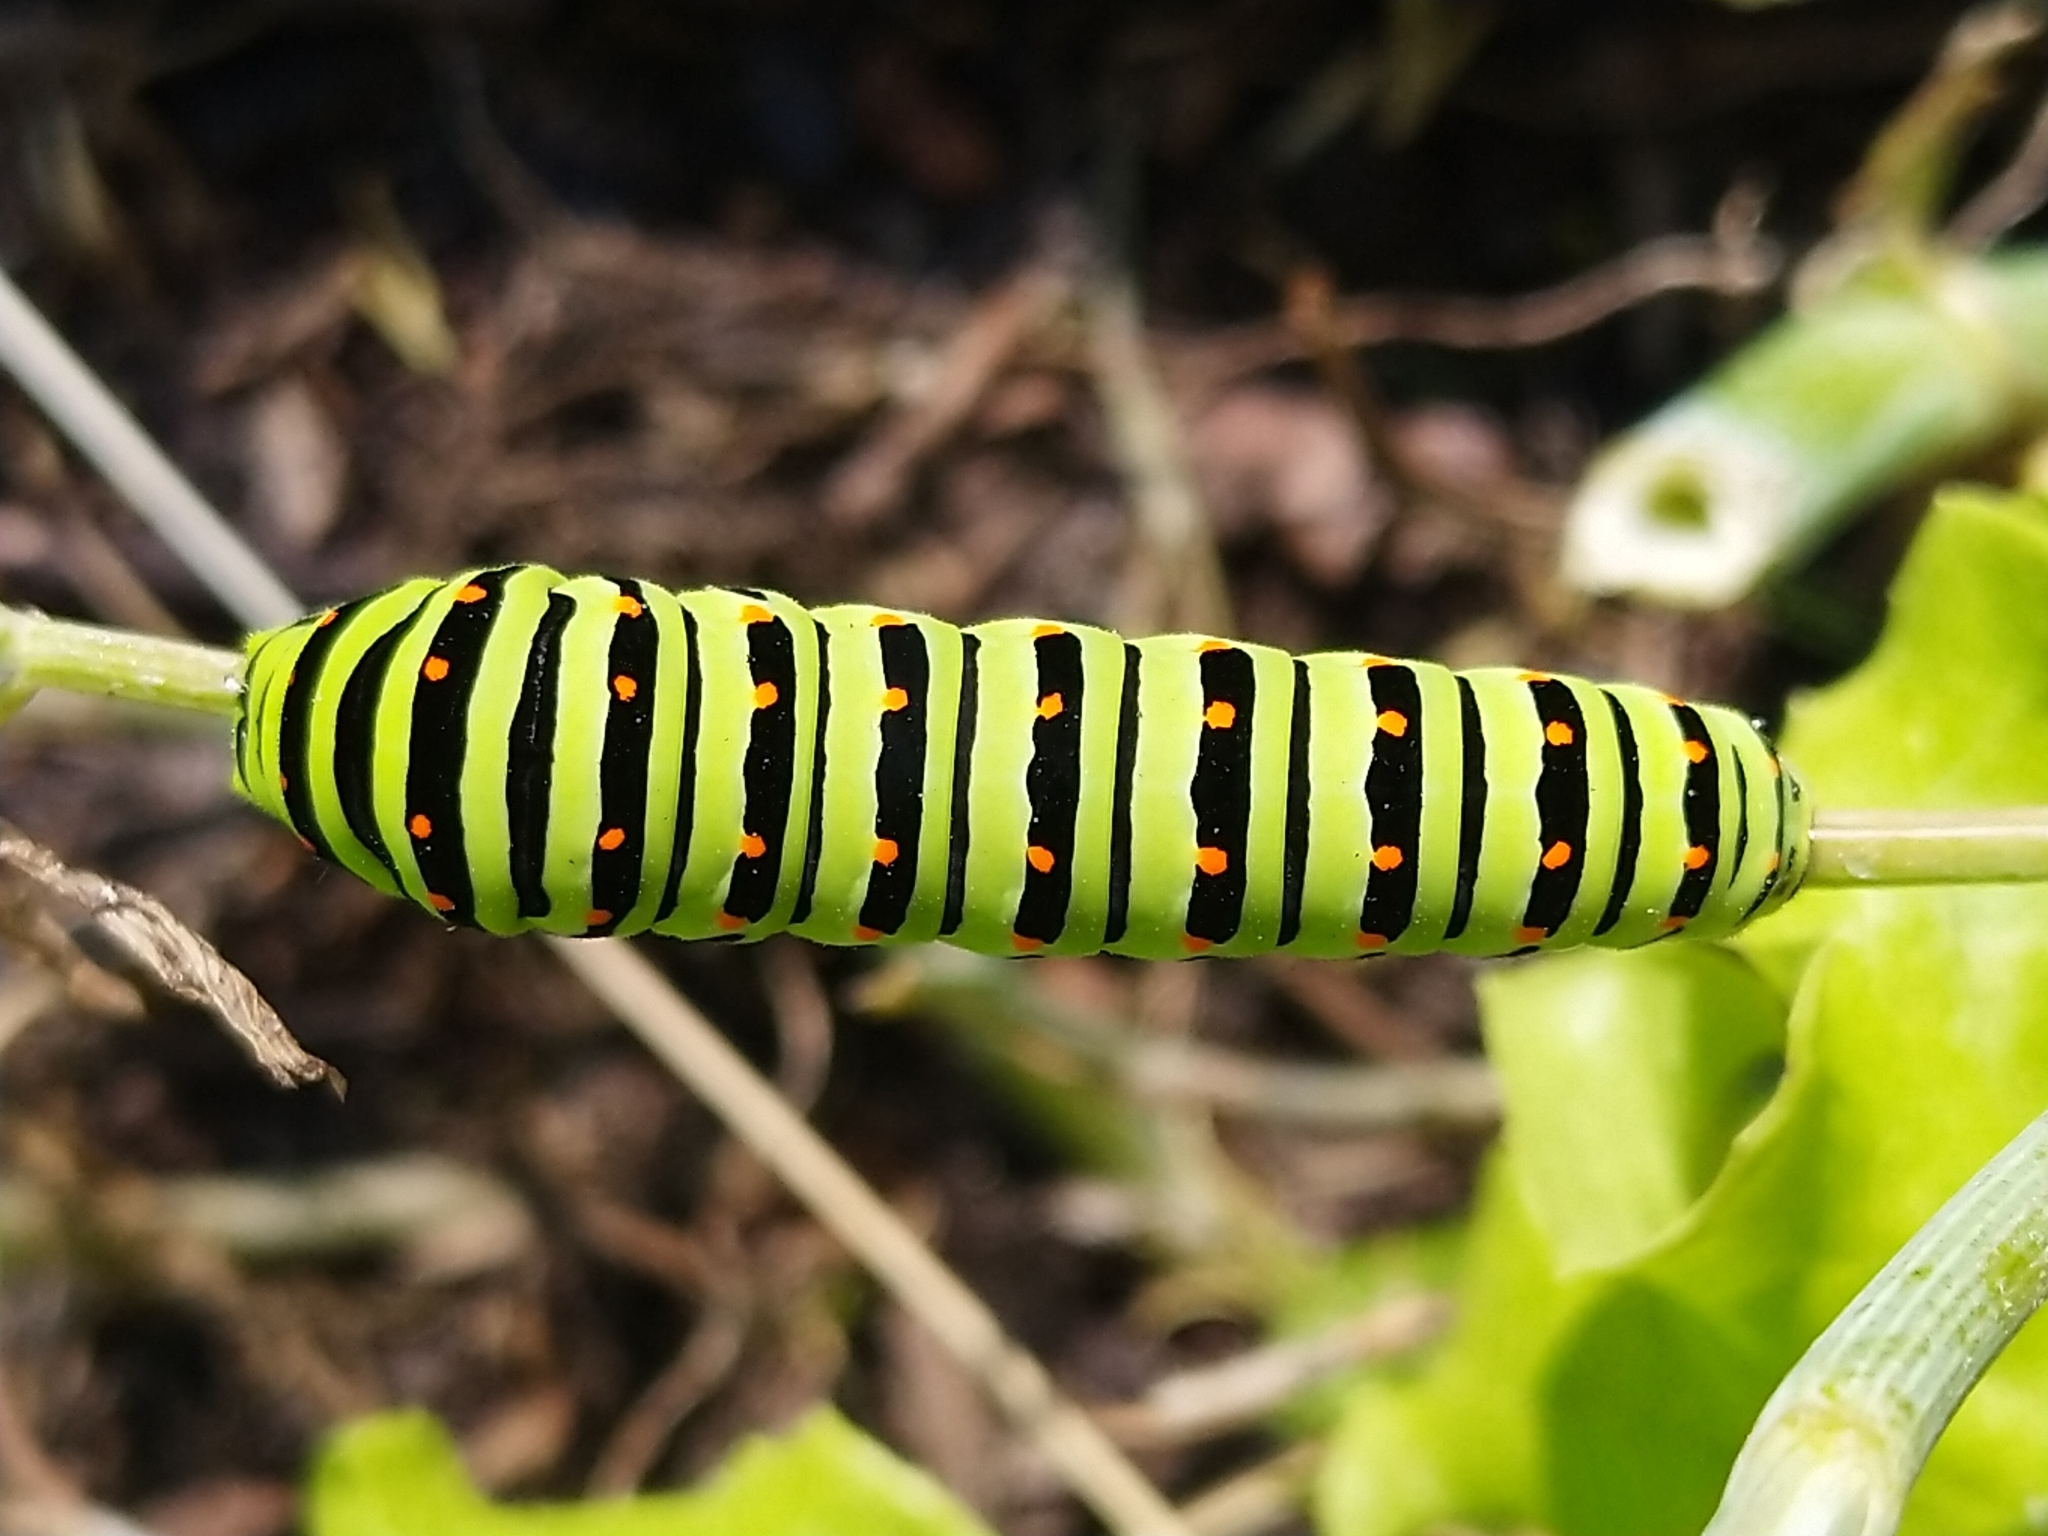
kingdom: Animalia
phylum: Arthropoda
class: Insecta
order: Lepidoptera
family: Papilionidae
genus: Papilio
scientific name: Papilio machaon
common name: Swallowtail
